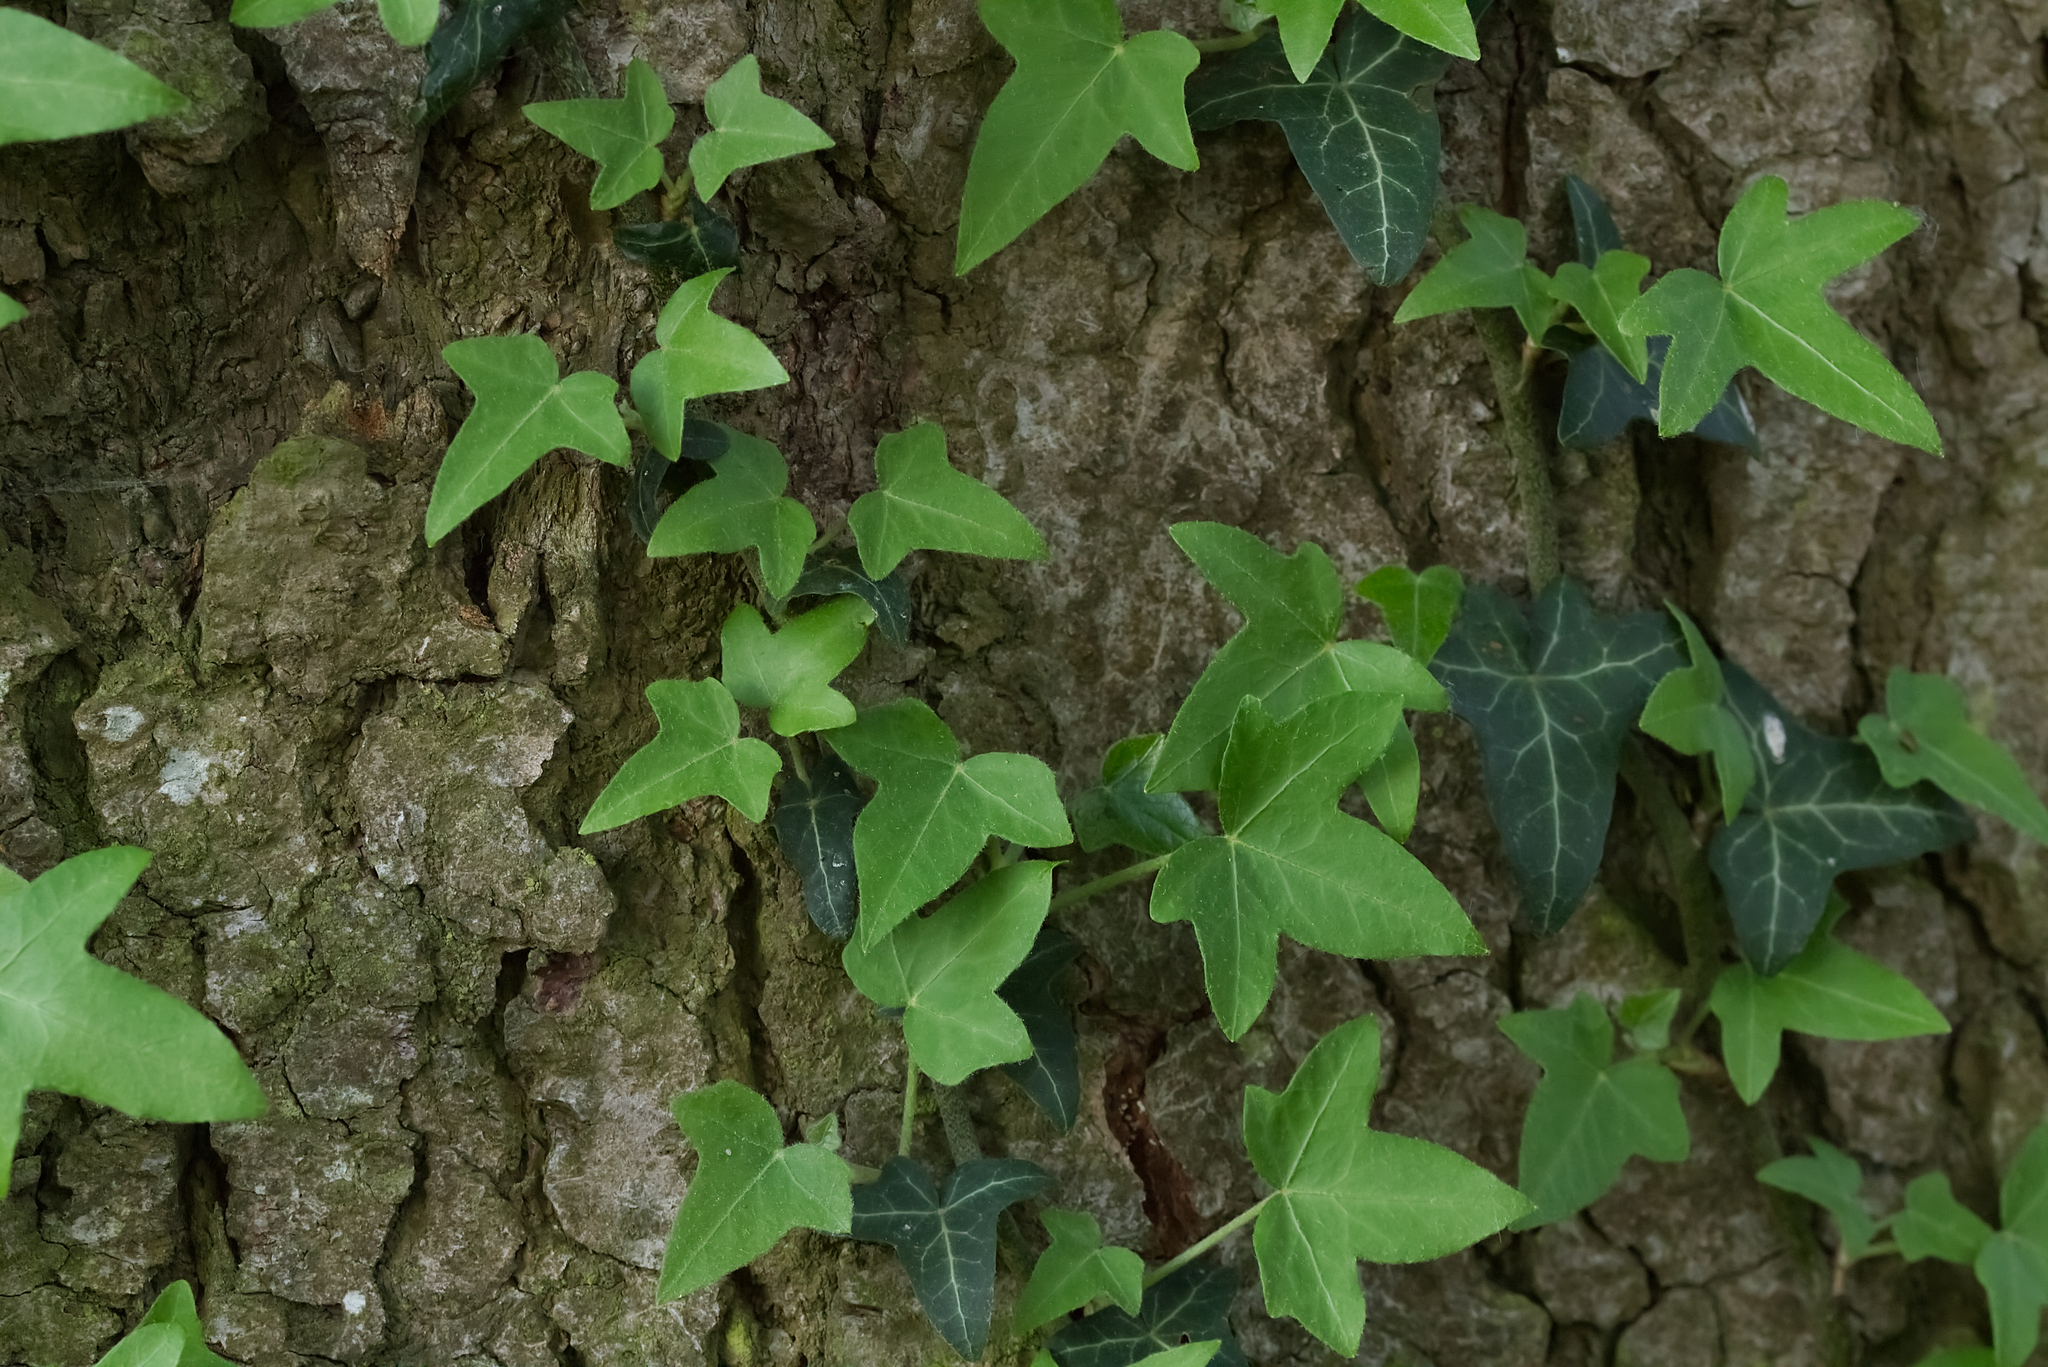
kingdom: Plantae
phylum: Tracheophyta
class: Magnoliopsida
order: Apiales
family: Araliaceae
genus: Hedera
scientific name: Hedera helix
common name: Ivy
